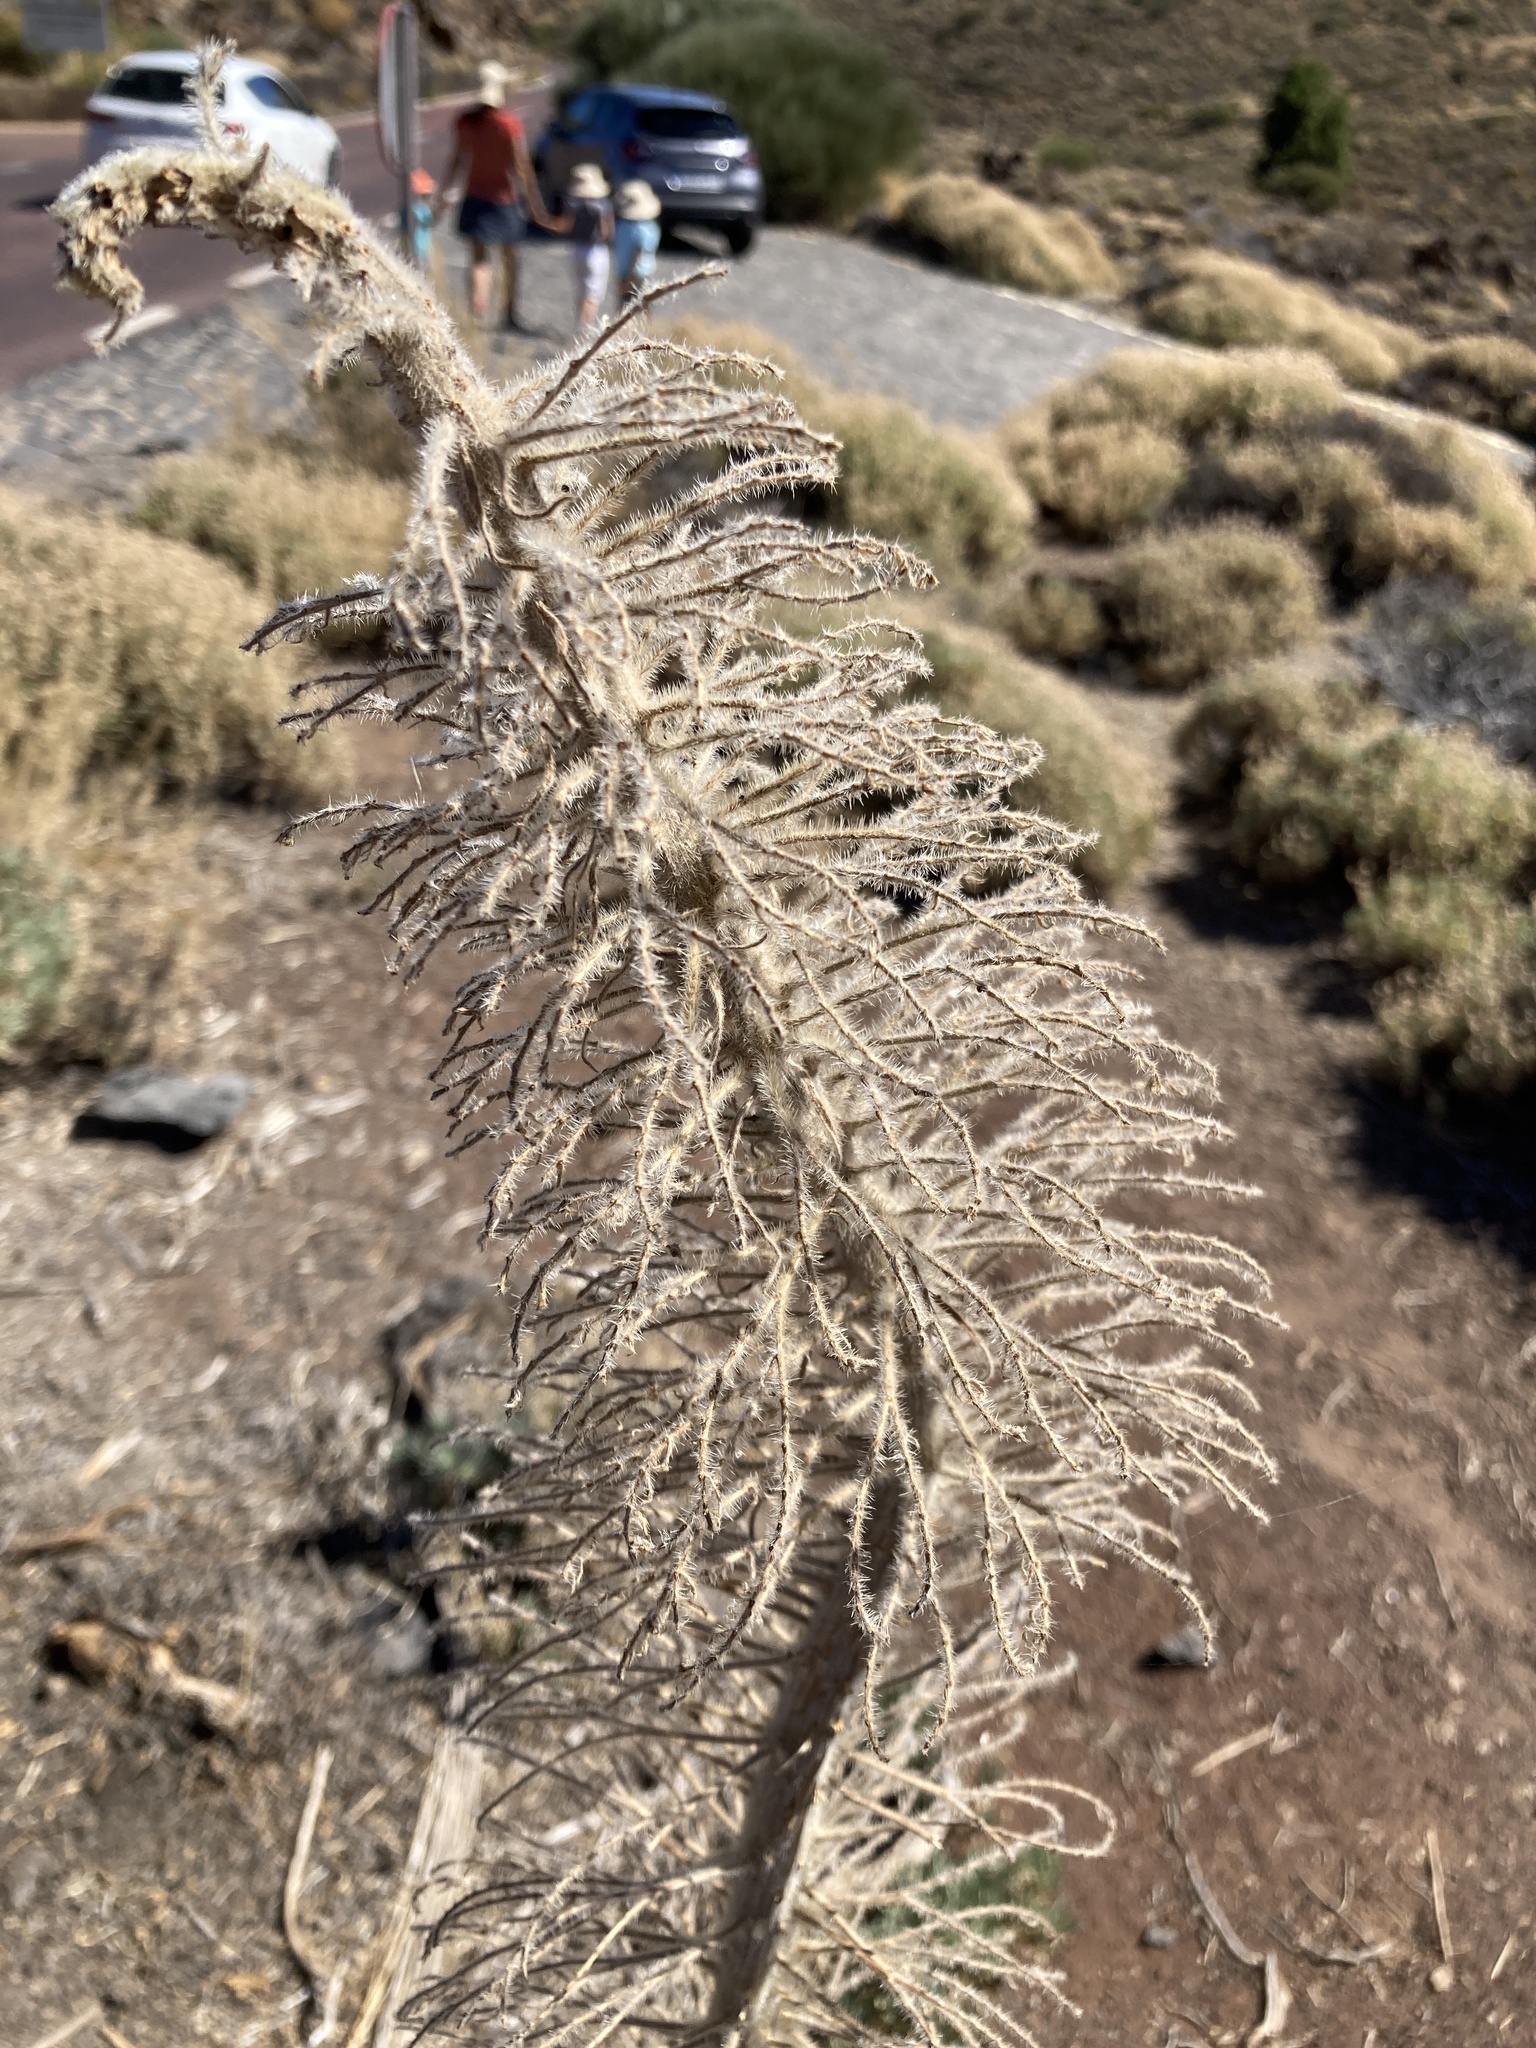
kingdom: Plantae
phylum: Tracheophyta
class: Magnoliopsida
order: Boraginales
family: Boraginaceae
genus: Echium
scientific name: Echium wildpretii
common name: Tower-of-jewels
